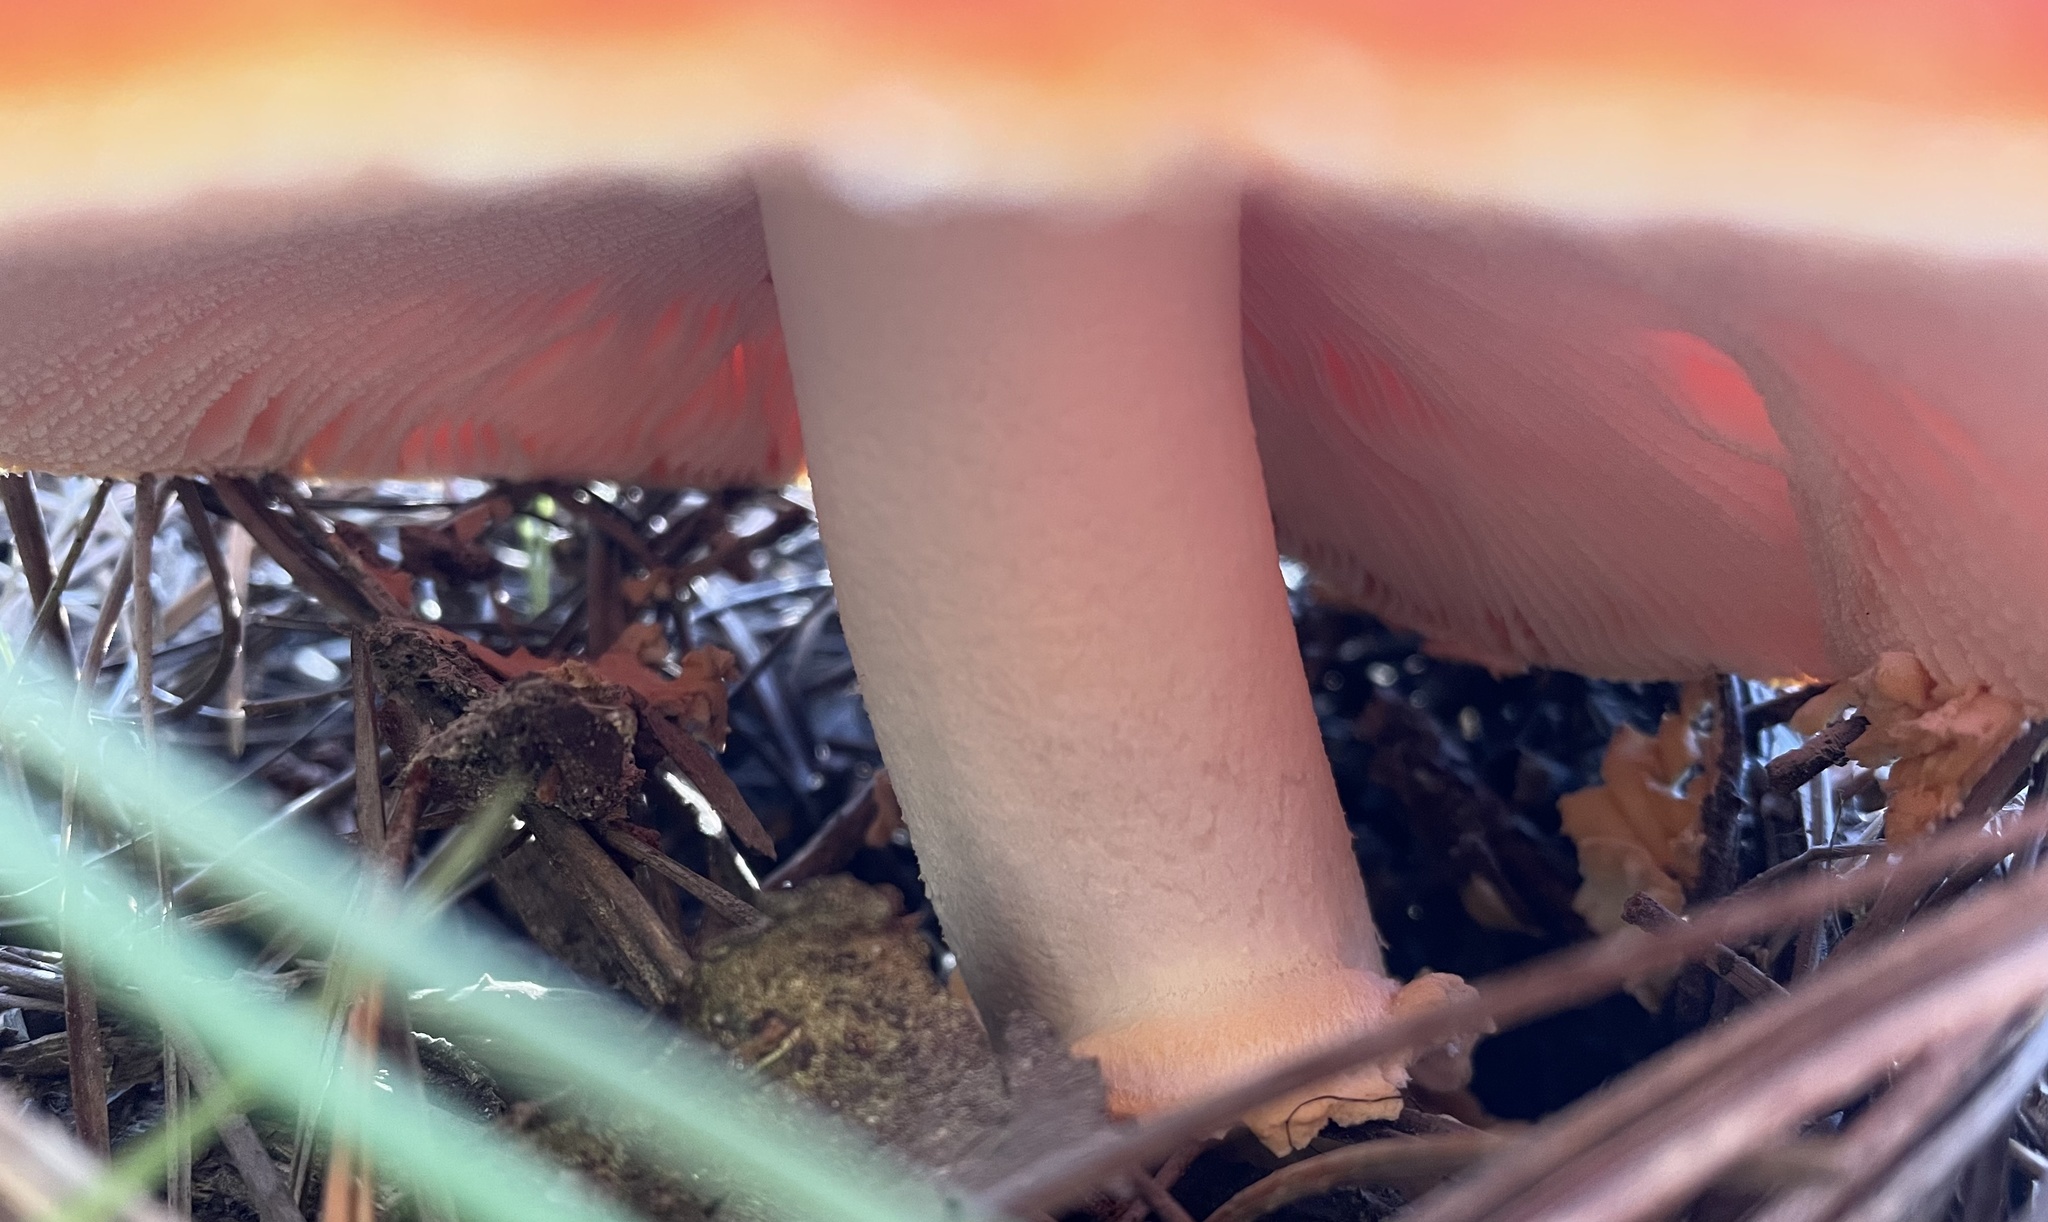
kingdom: Fungi
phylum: Basidiomycota
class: Agaricomycetes
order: Agaricales
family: Amanitaceae
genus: Amanita
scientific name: Amanita muscaria
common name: Fly agaric
